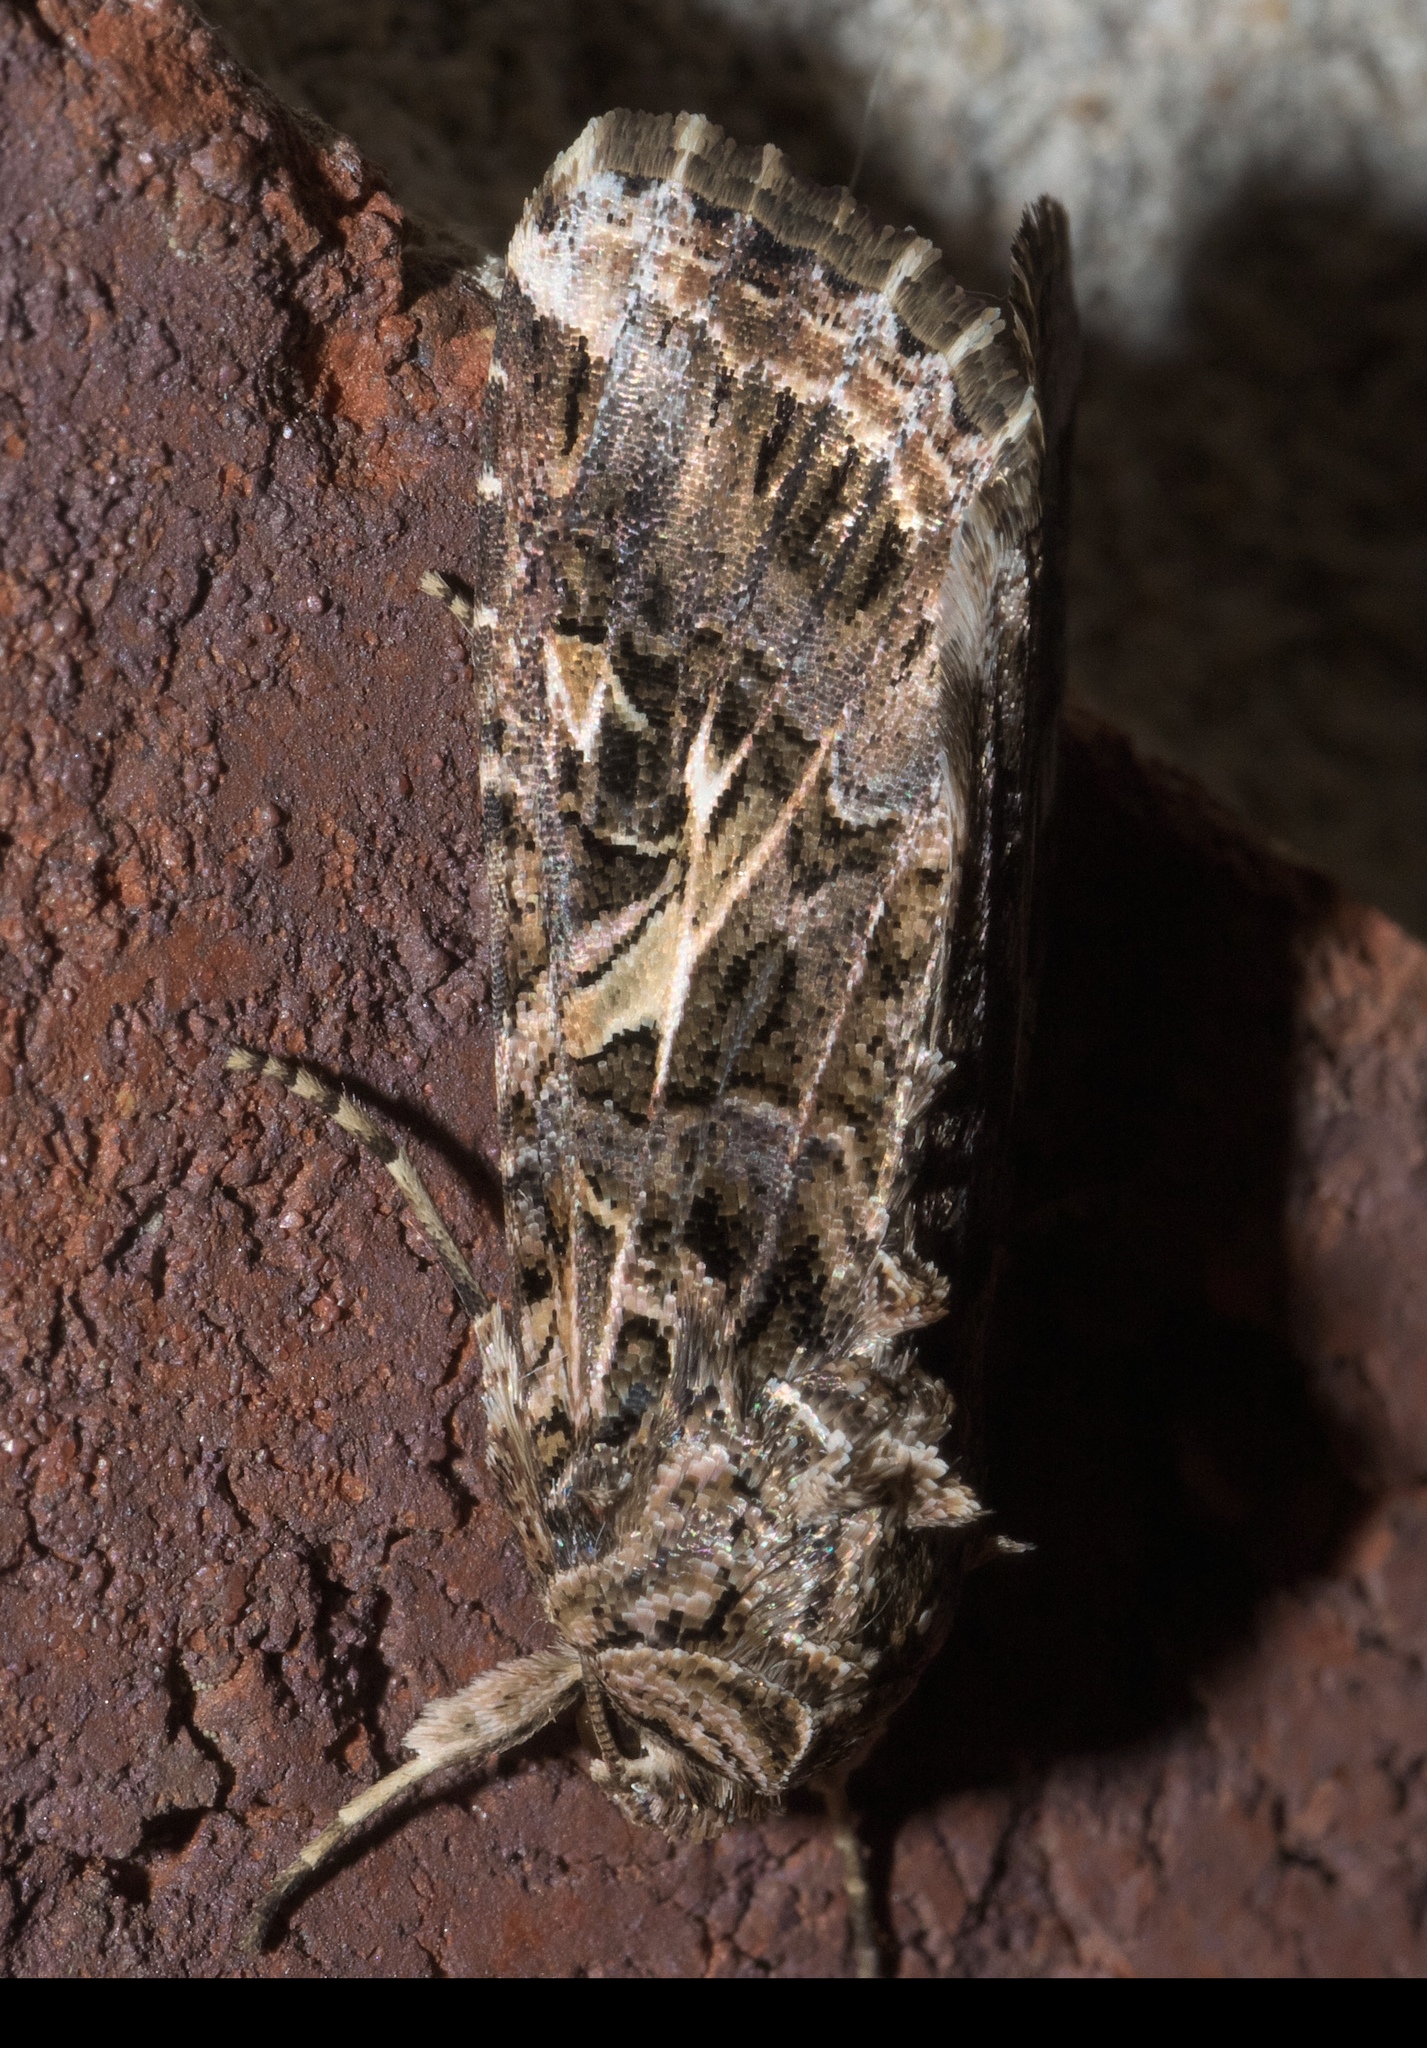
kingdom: Animalia
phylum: Arthropoda
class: Insecta
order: Lepidoptera
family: Noctuidae
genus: Spodoptera
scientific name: Spodoptera ornithogalli
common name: Yellow-striped armyworm
